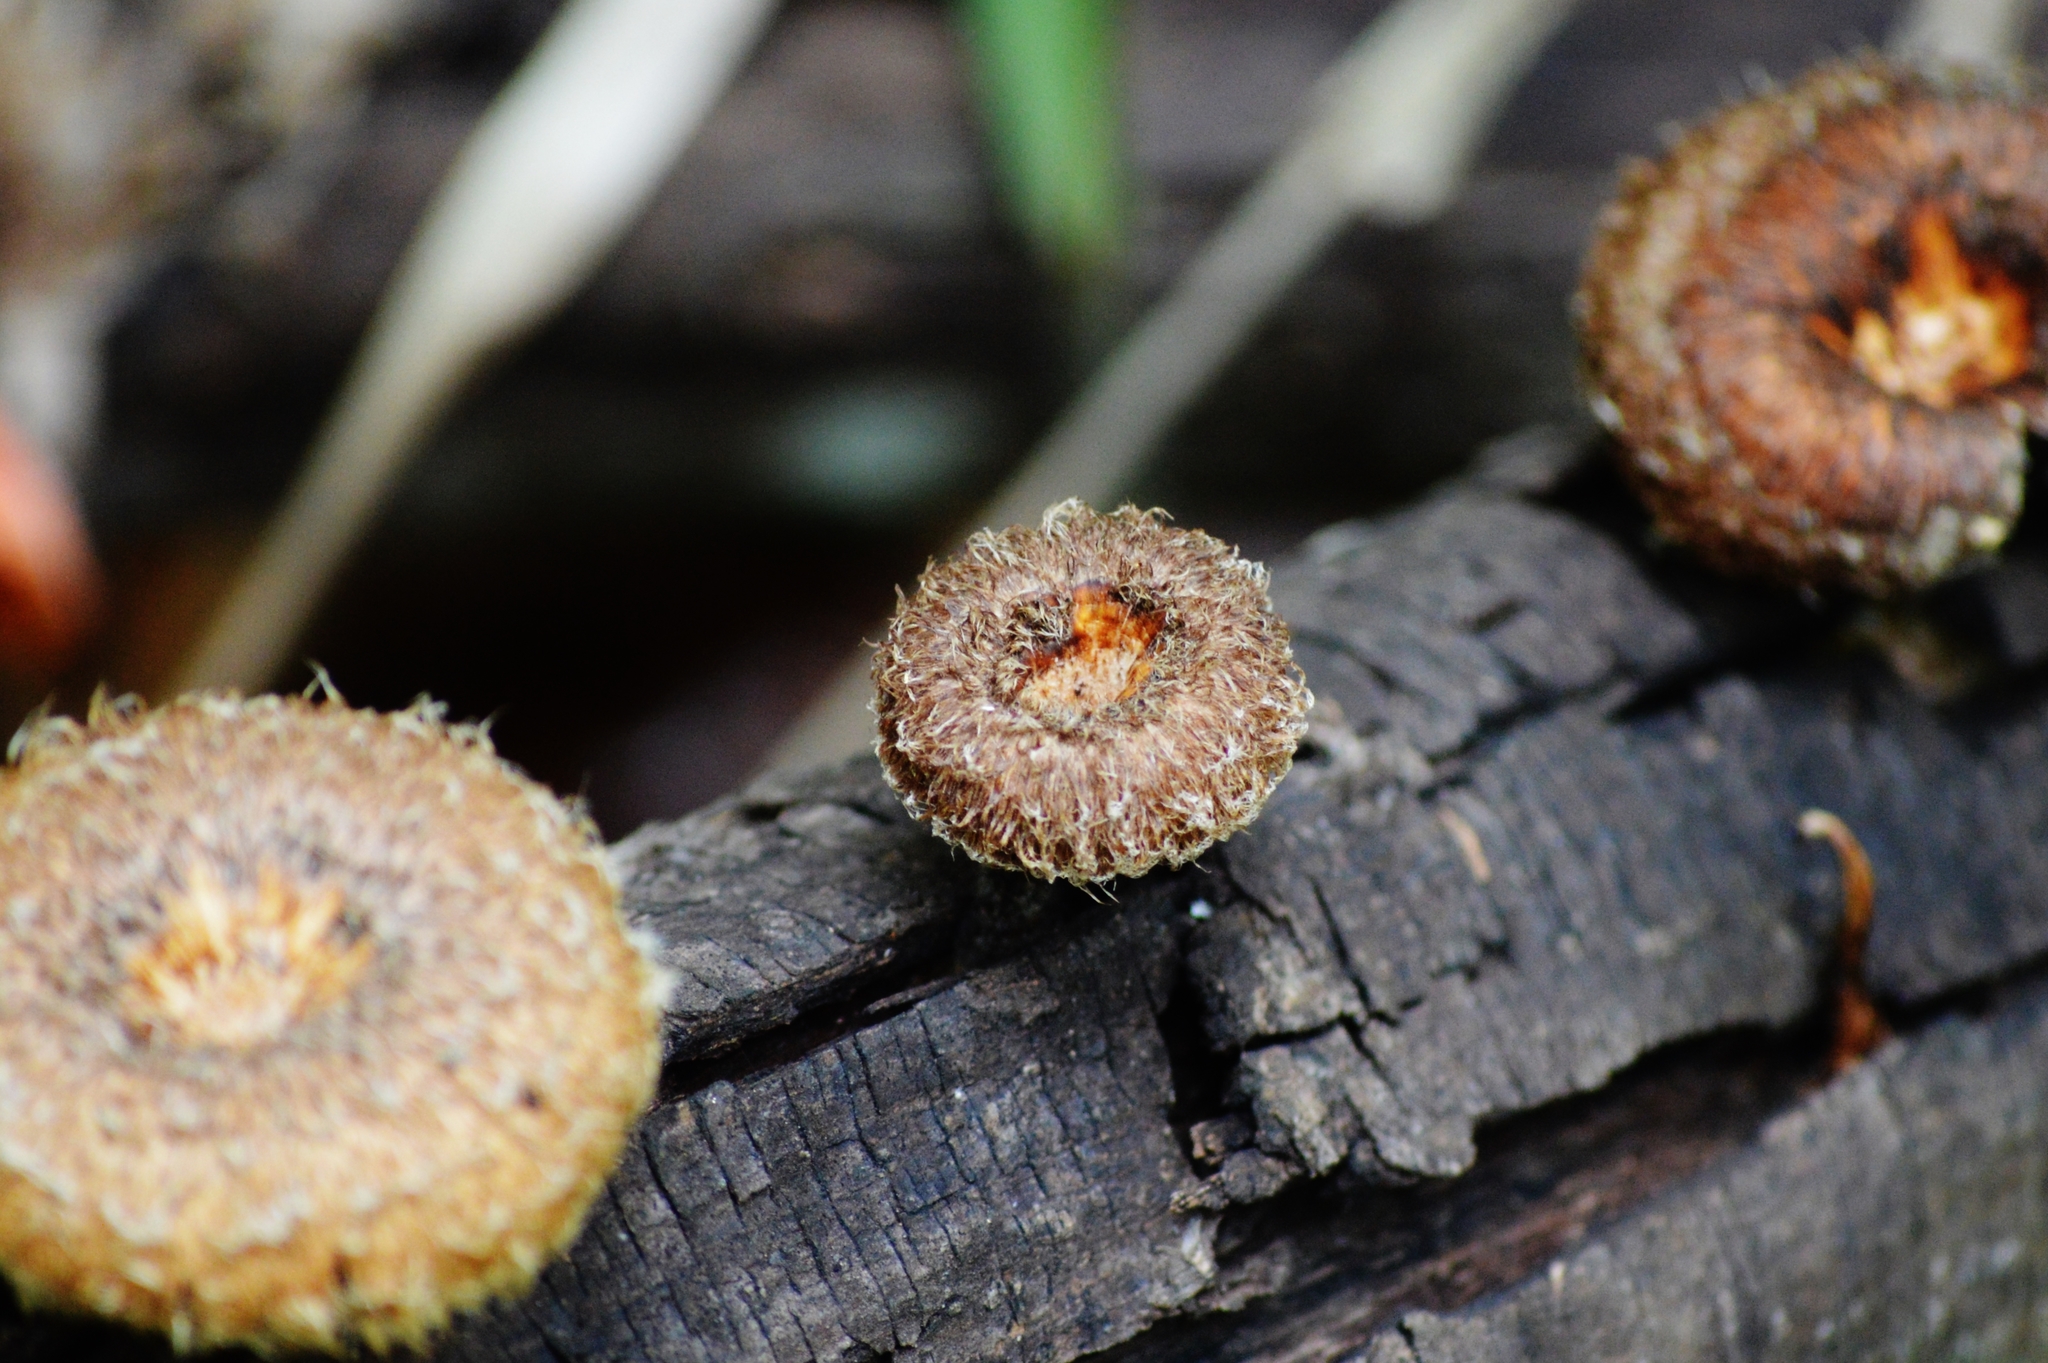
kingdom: Fungi
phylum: Basidiomycota
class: Agaricomycetes
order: Polyporales
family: Polyporaceae
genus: Lentinus
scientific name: Lentinus crinitus
